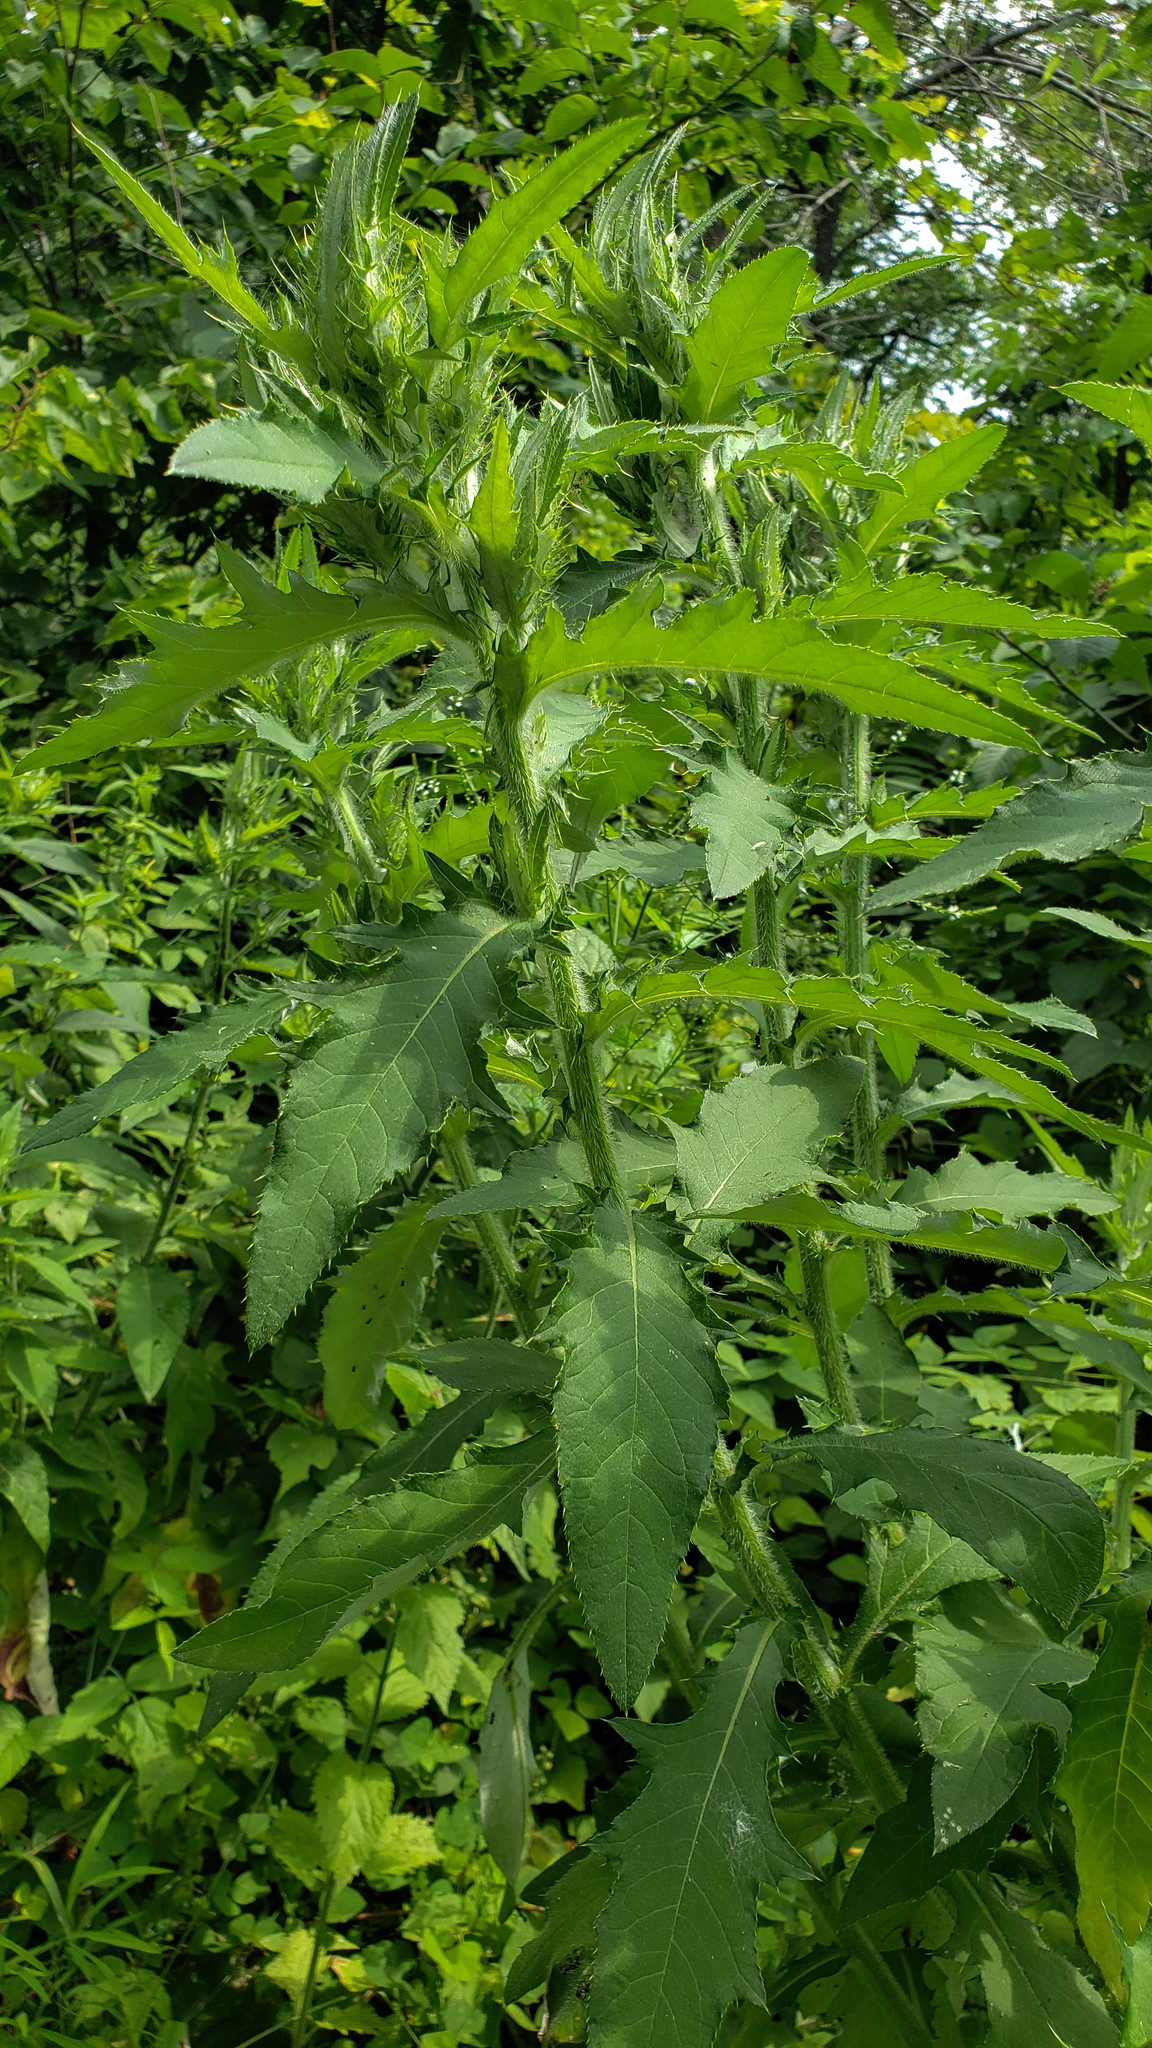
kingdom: Plantae
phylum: Tracheophyta
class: Magnoliopsida
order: Asterales
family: Asteraceae
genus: Cirsium
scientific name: Cirsium altissimum
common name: Roadside thistle
